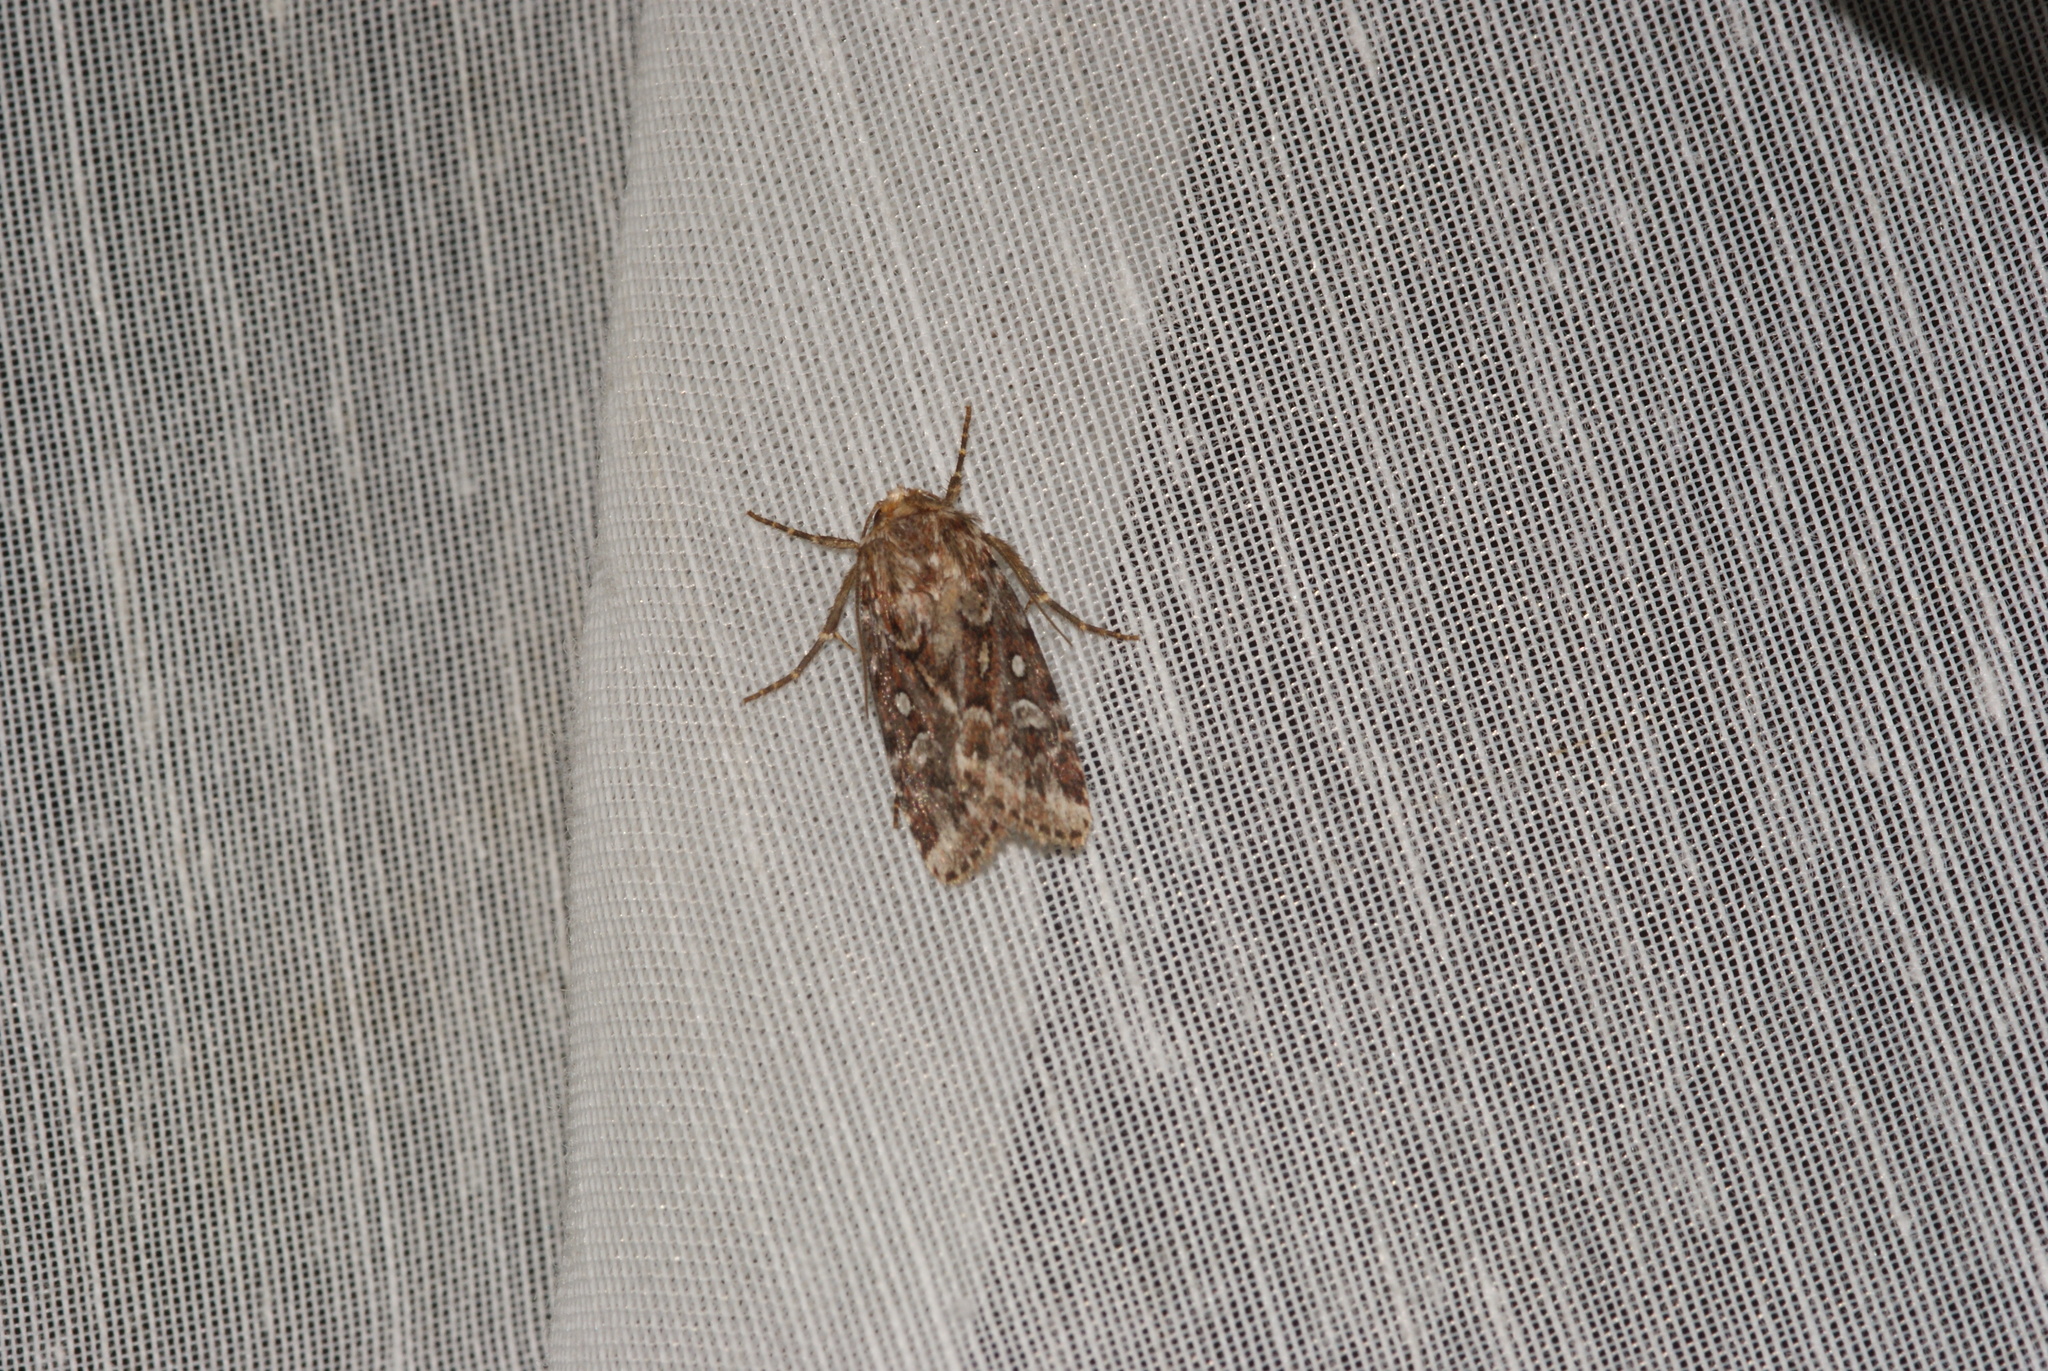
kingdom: Animalia
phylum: Arthropoda
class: Insecta
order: Lepidoptera
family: Noctuidae
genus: Lycophotia
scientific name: Lycophotia porphyrea
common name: True lover's knot
